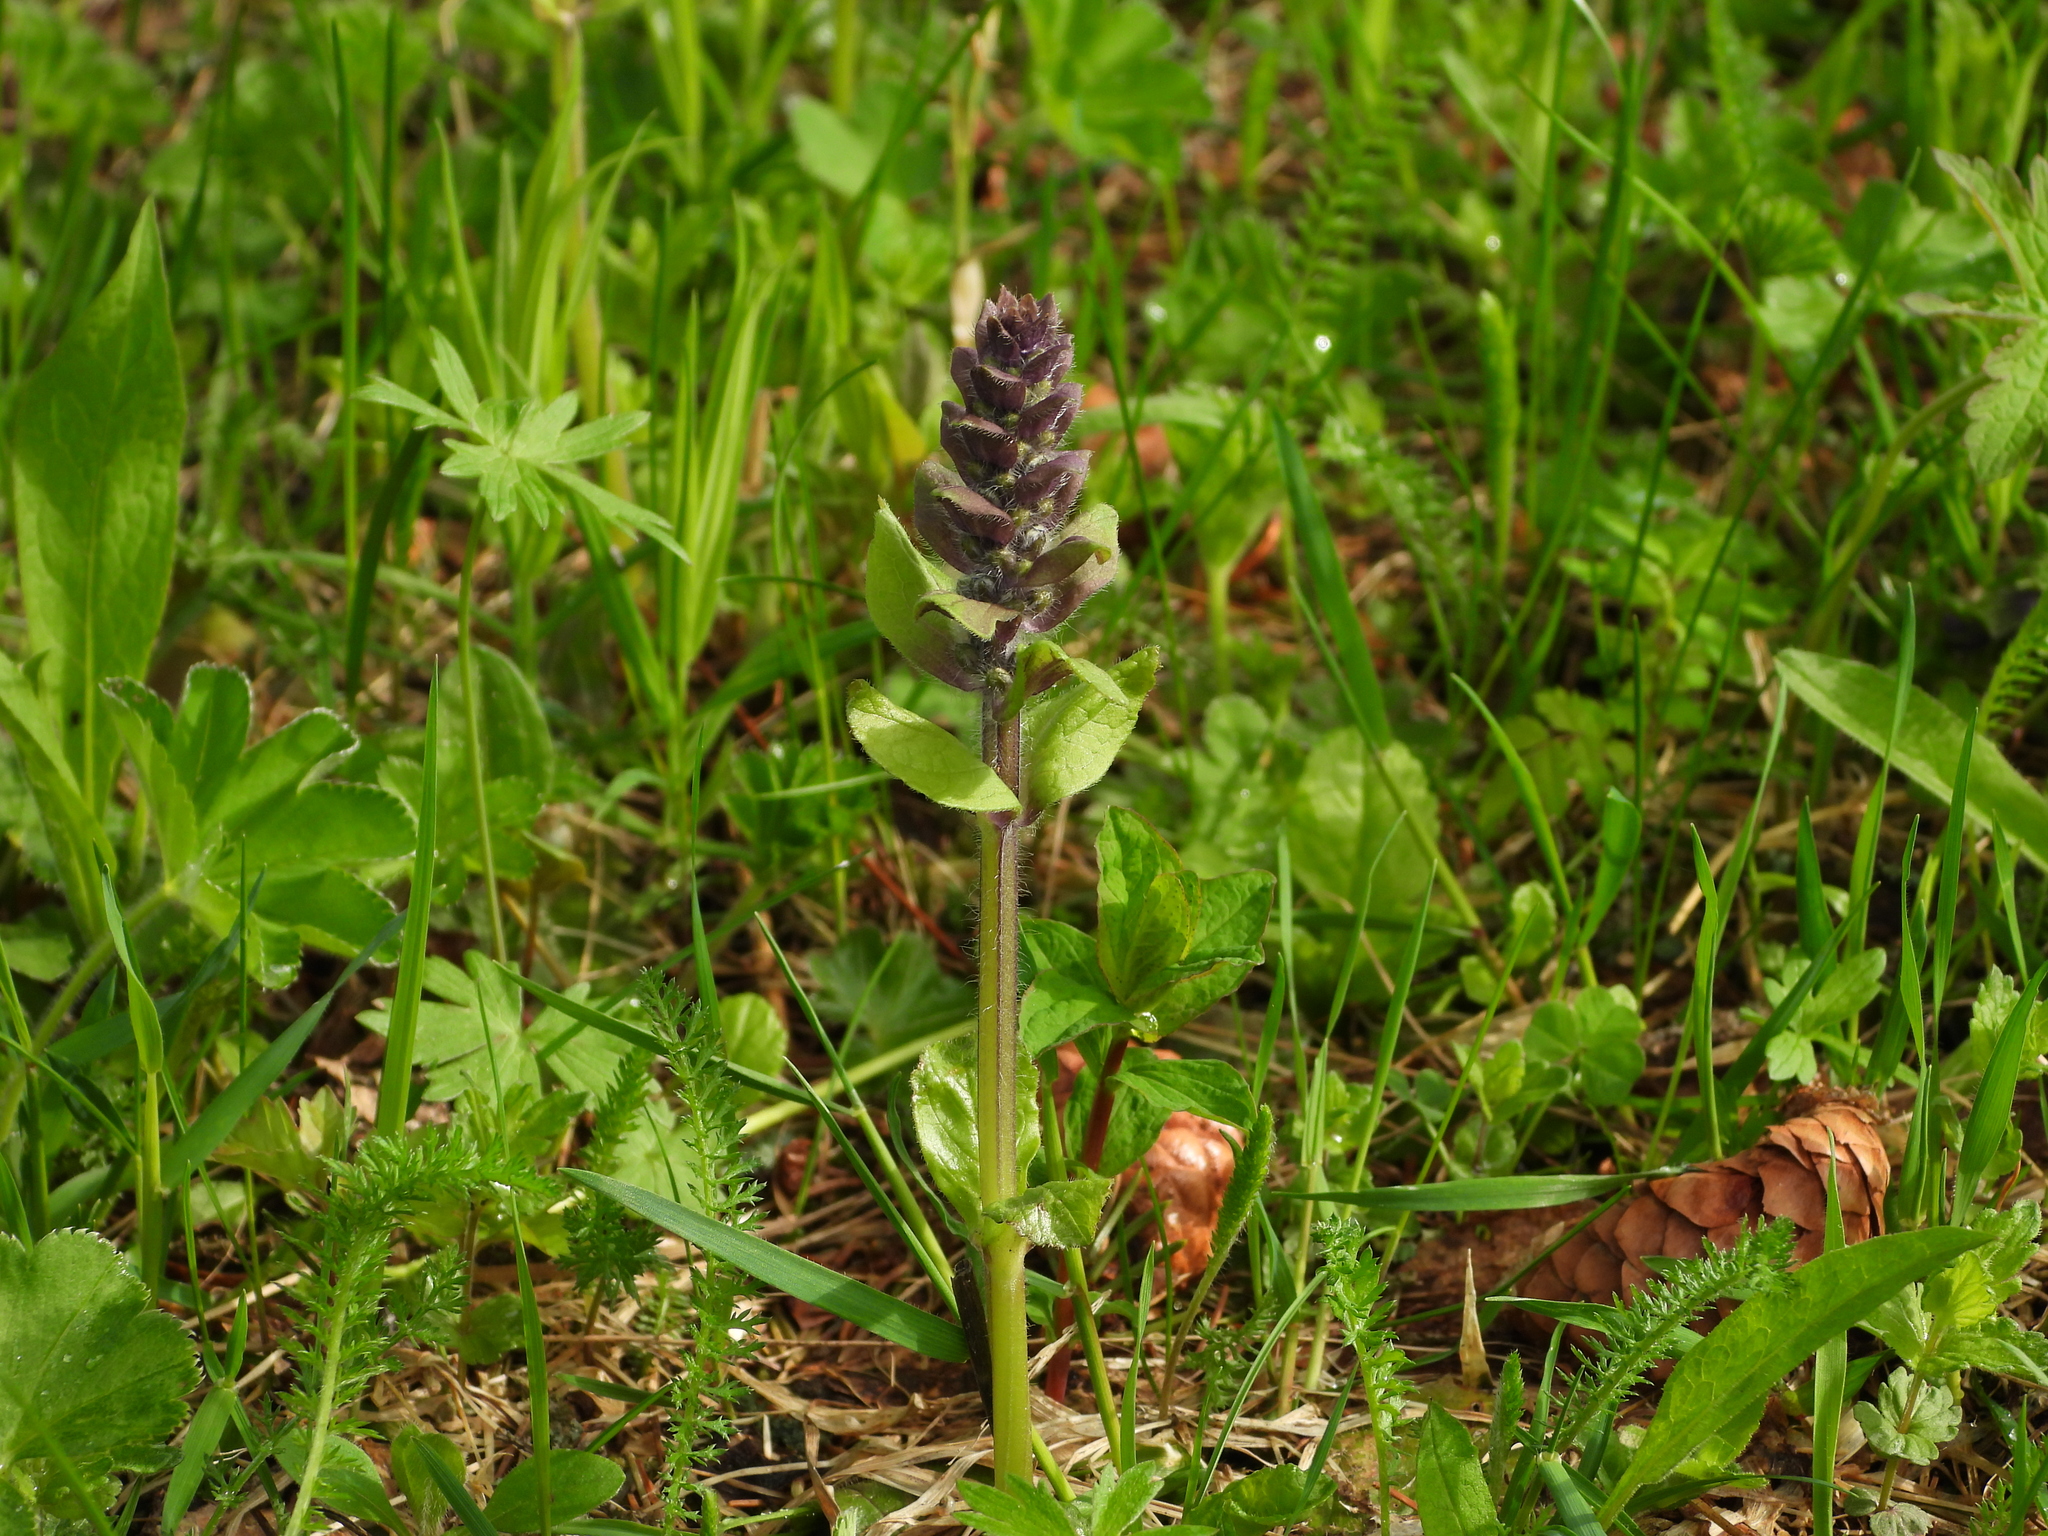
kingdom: Plantae
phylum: Tracheophyta
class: Magnoliopsida
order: Lamiales
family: Lamiaceae
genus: Ajuga
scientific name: Ajuga reptans
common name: Bugle
